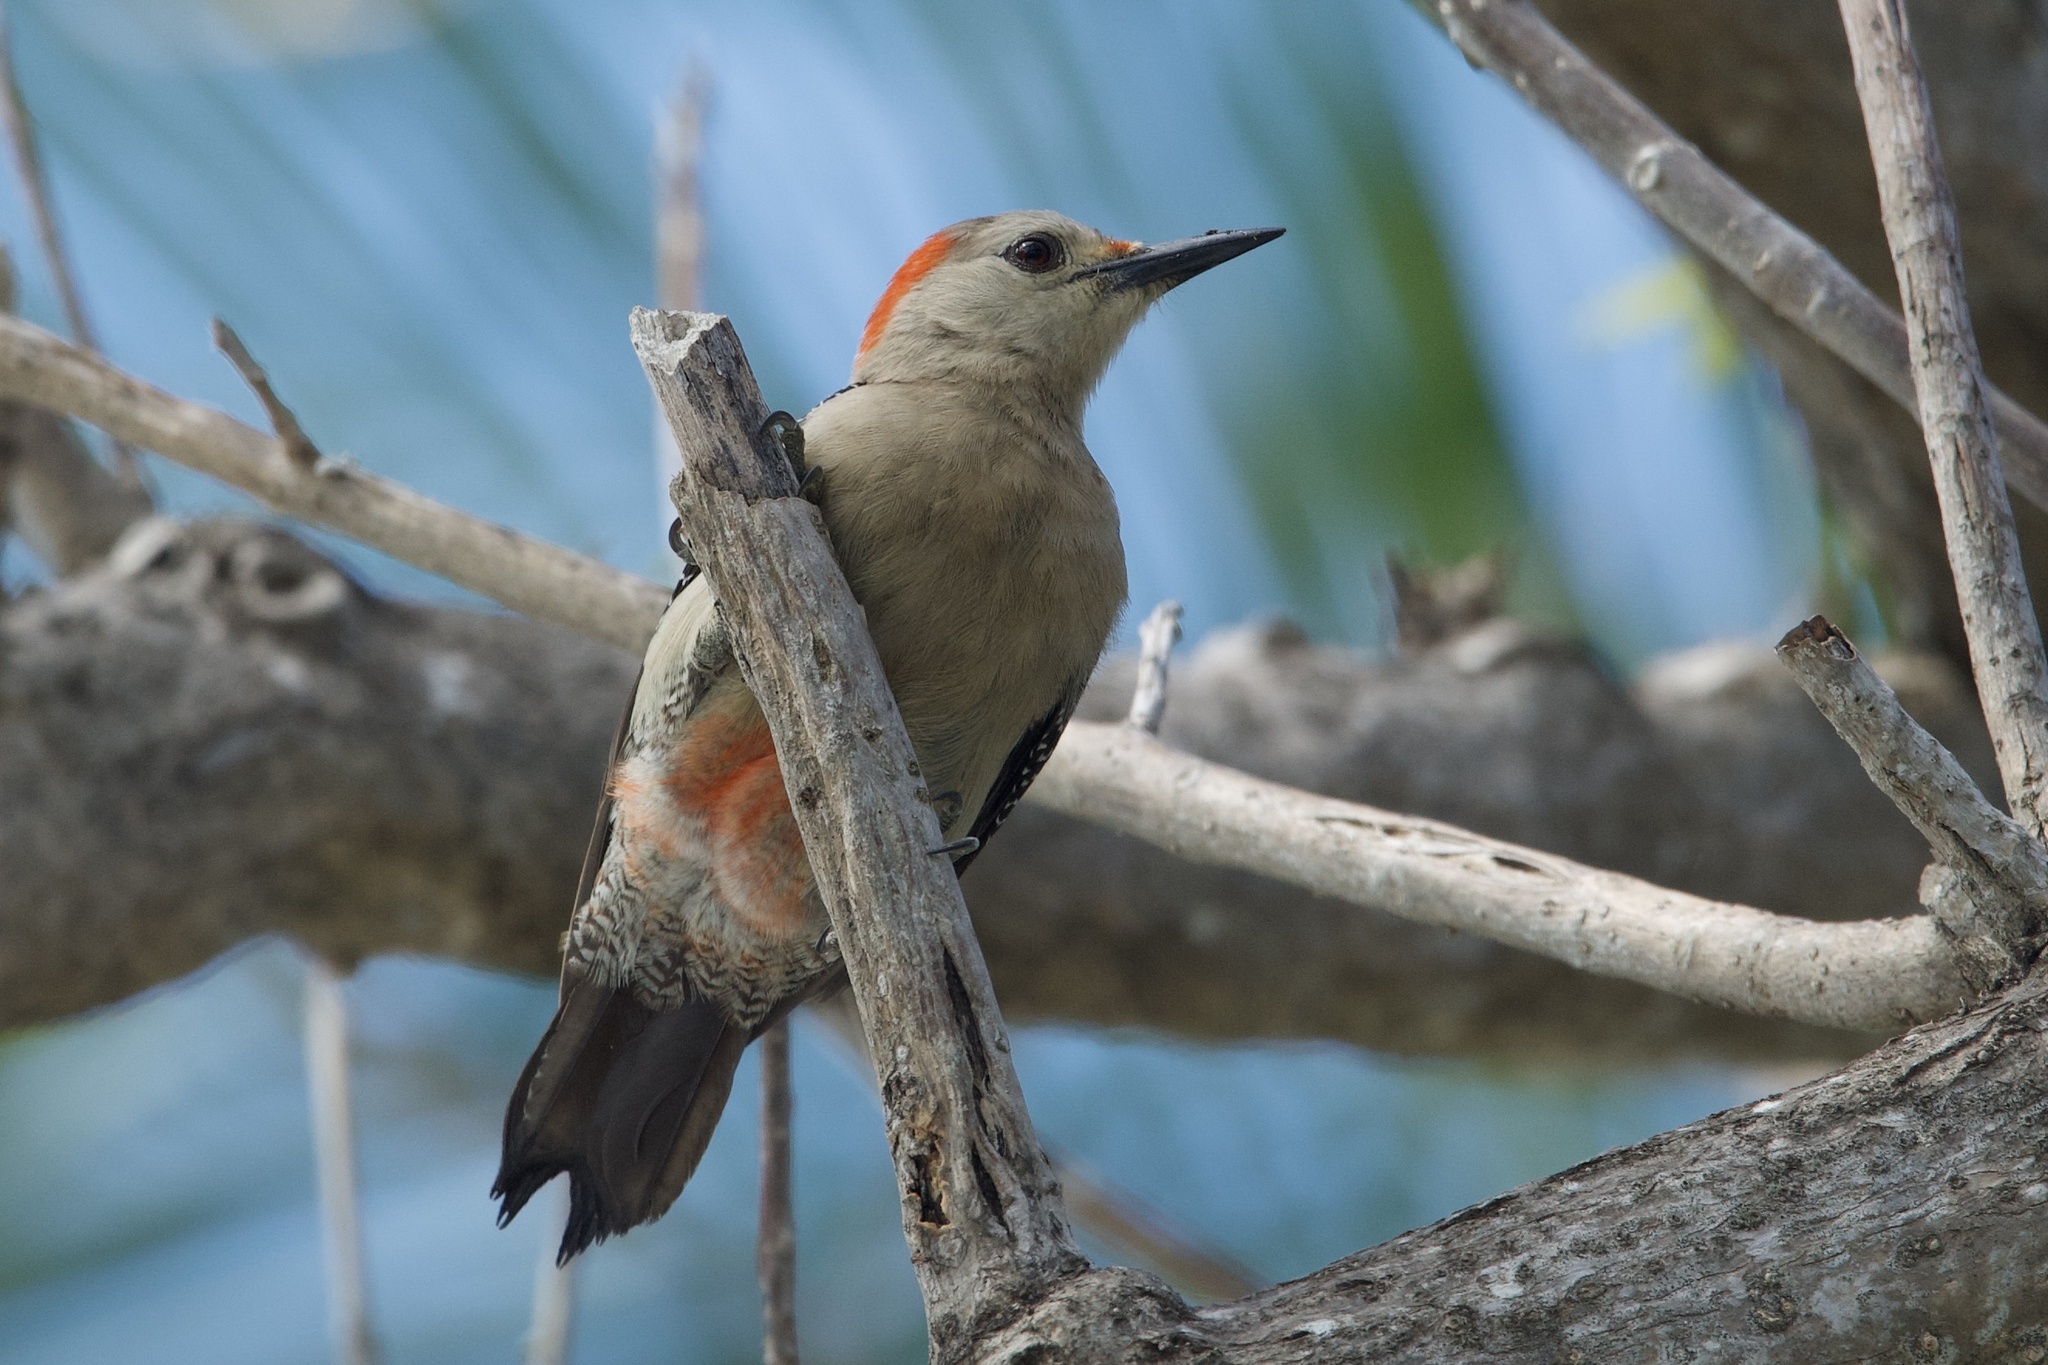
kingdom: Animalia
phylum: Chordata
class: Aves
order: Piciformes
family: Picidae
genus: Melanerpes
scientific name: Melanerpes aurifrons
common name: Golden-fronted woodpecker
